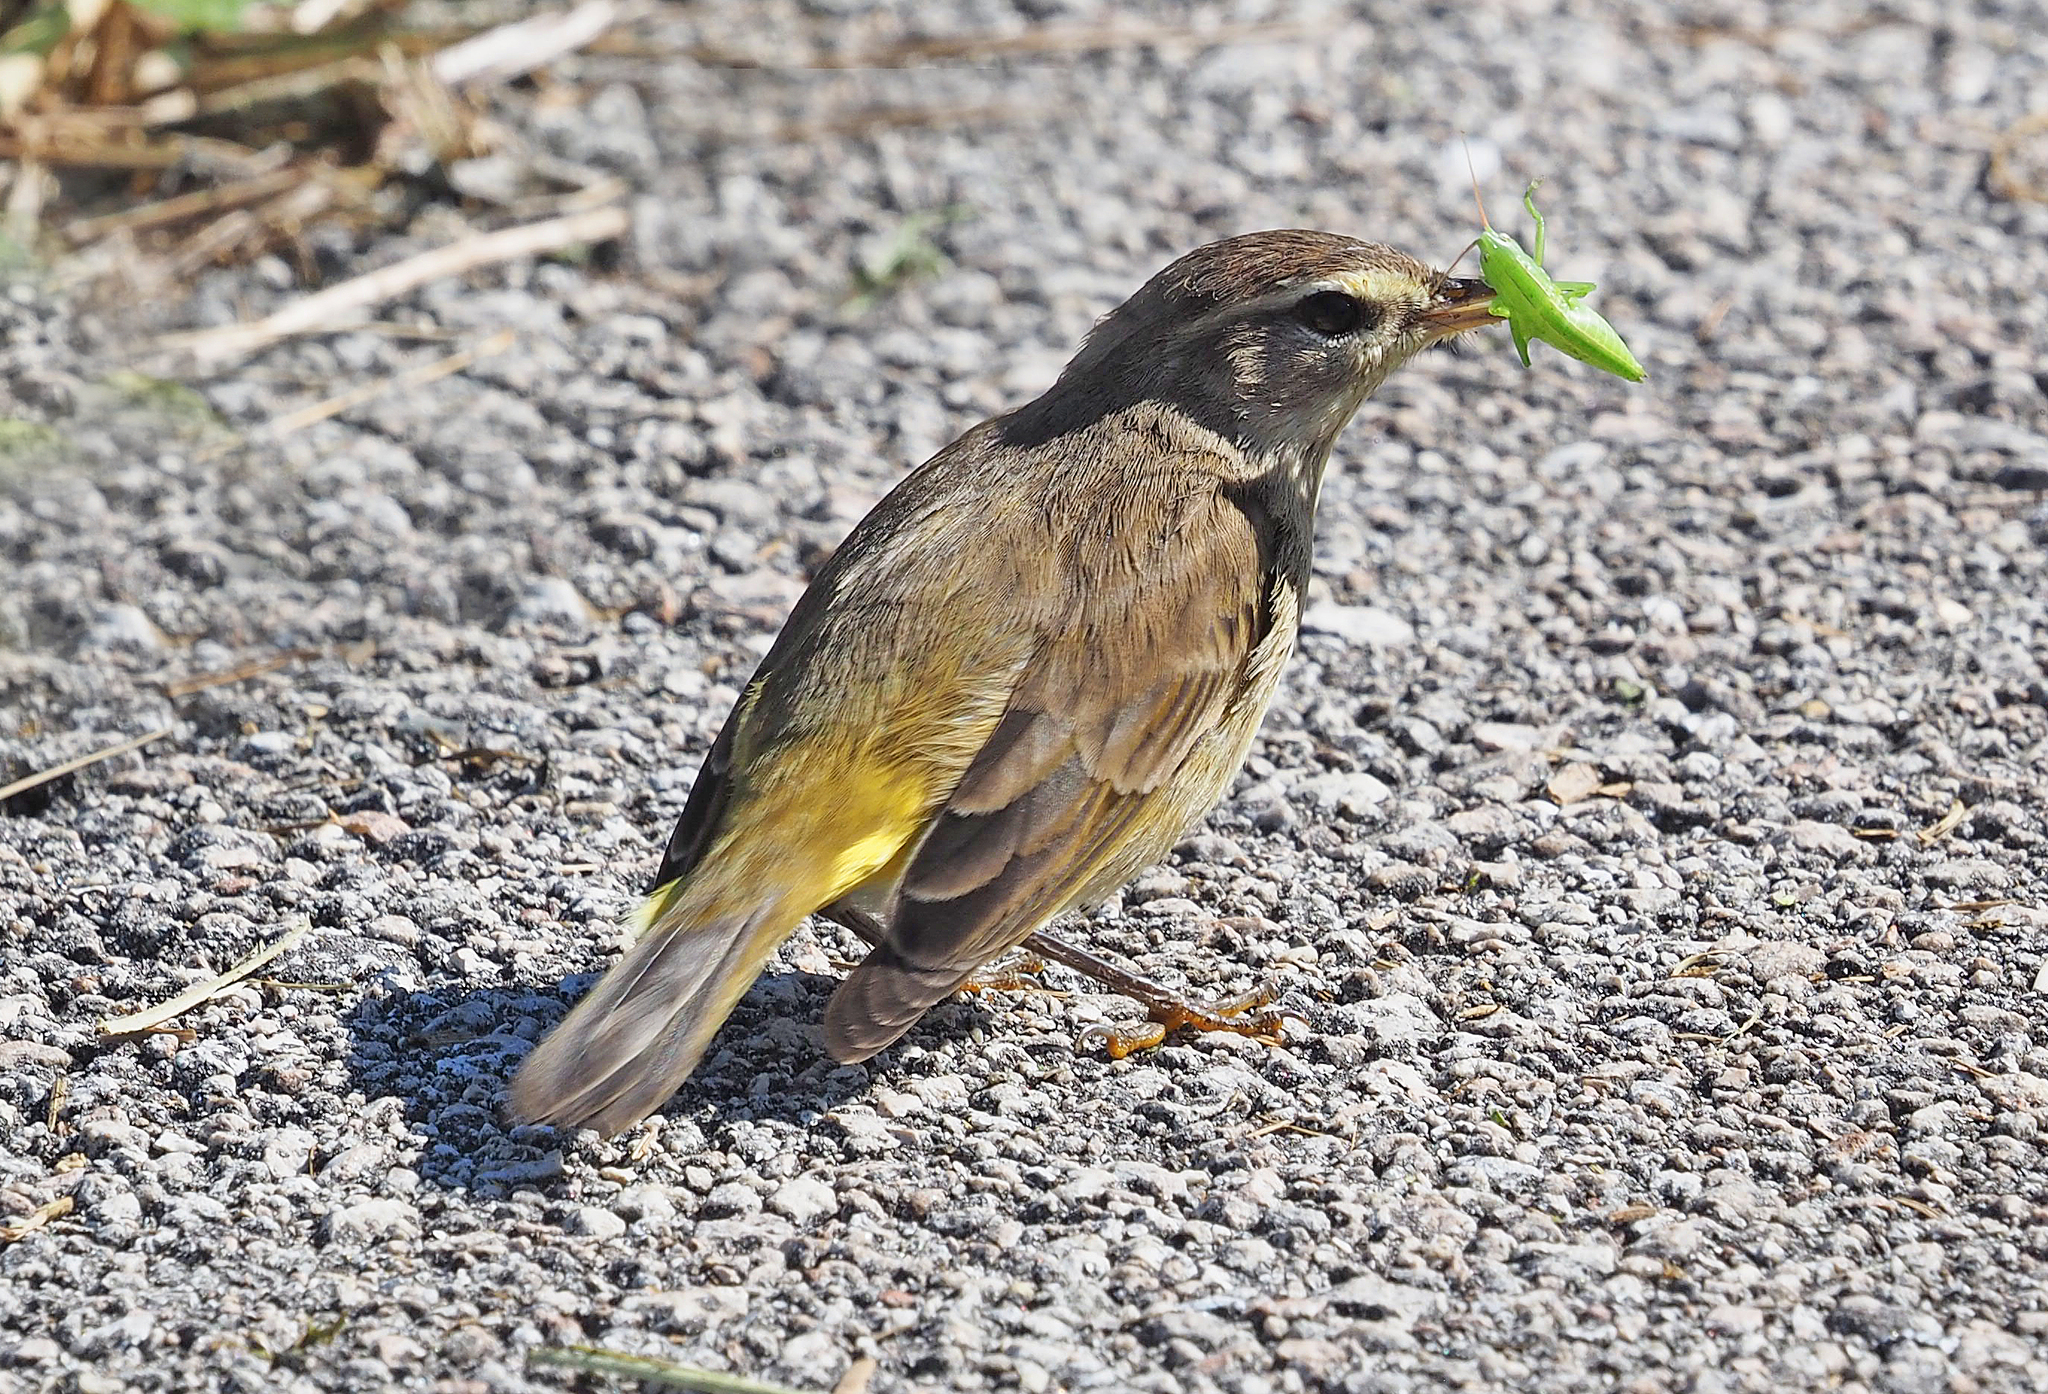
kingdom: Animalia
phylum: Chordata
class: Aves
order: Passeriformes
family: Parulidae
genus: Setophaga
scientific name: Setophaga palmarum
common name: Palm warbler
